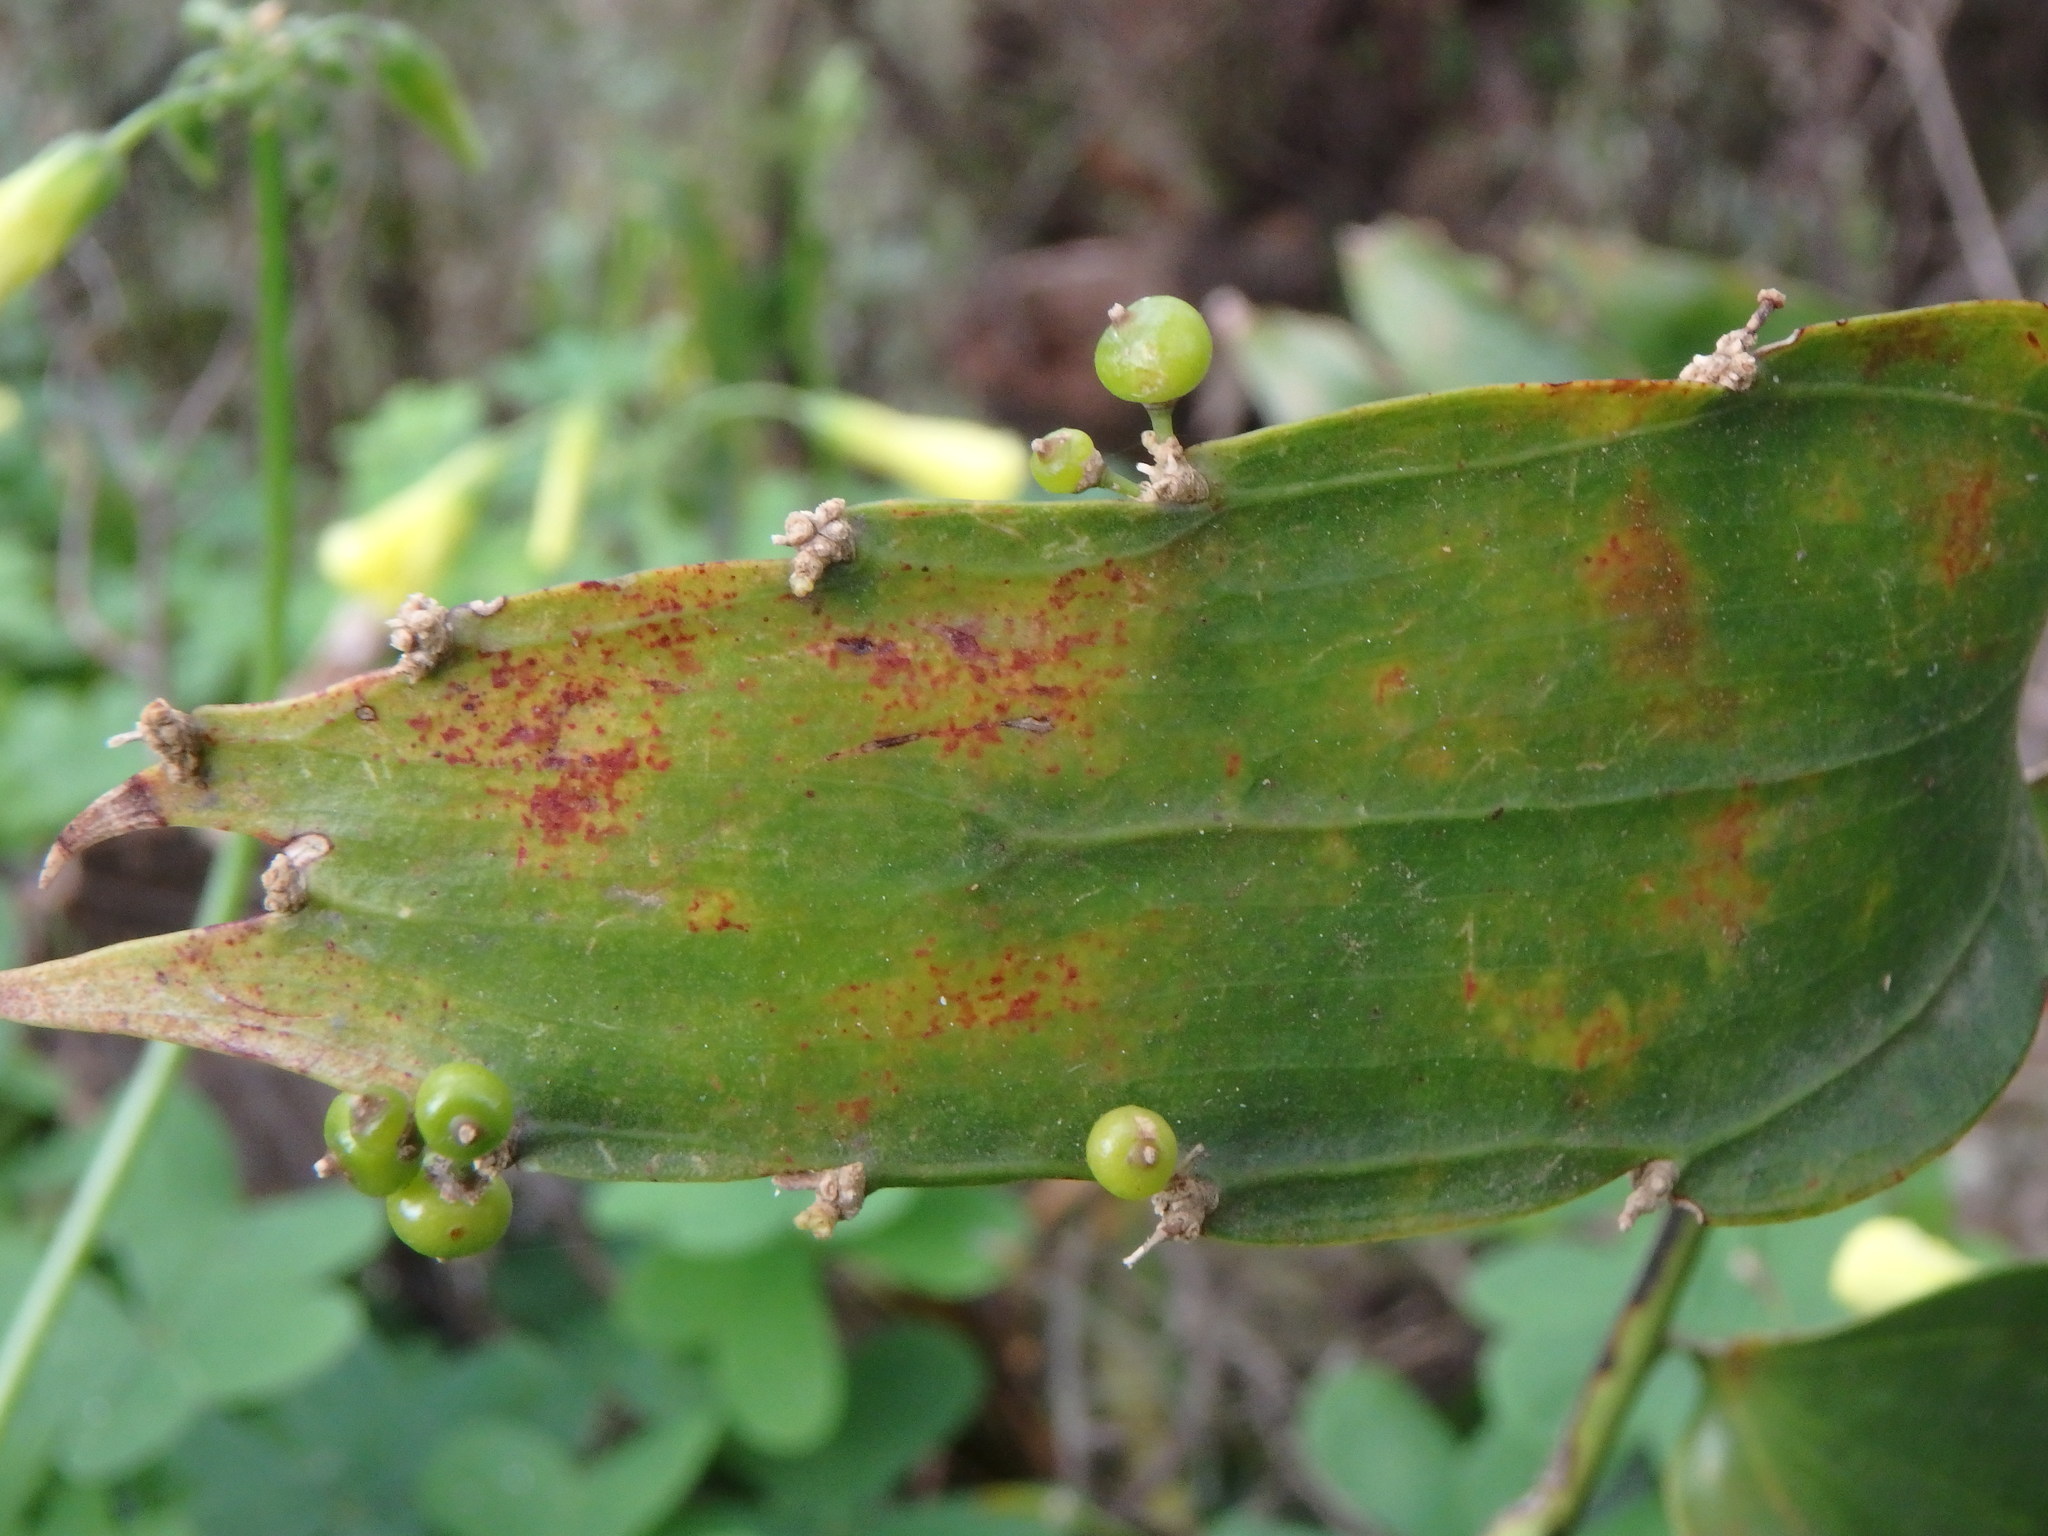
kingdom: Plantae
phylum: Tracheophyta
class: Liliopsida
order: Asparagales
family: Asparagaceae
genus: Semele
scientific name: Semele androgyna
